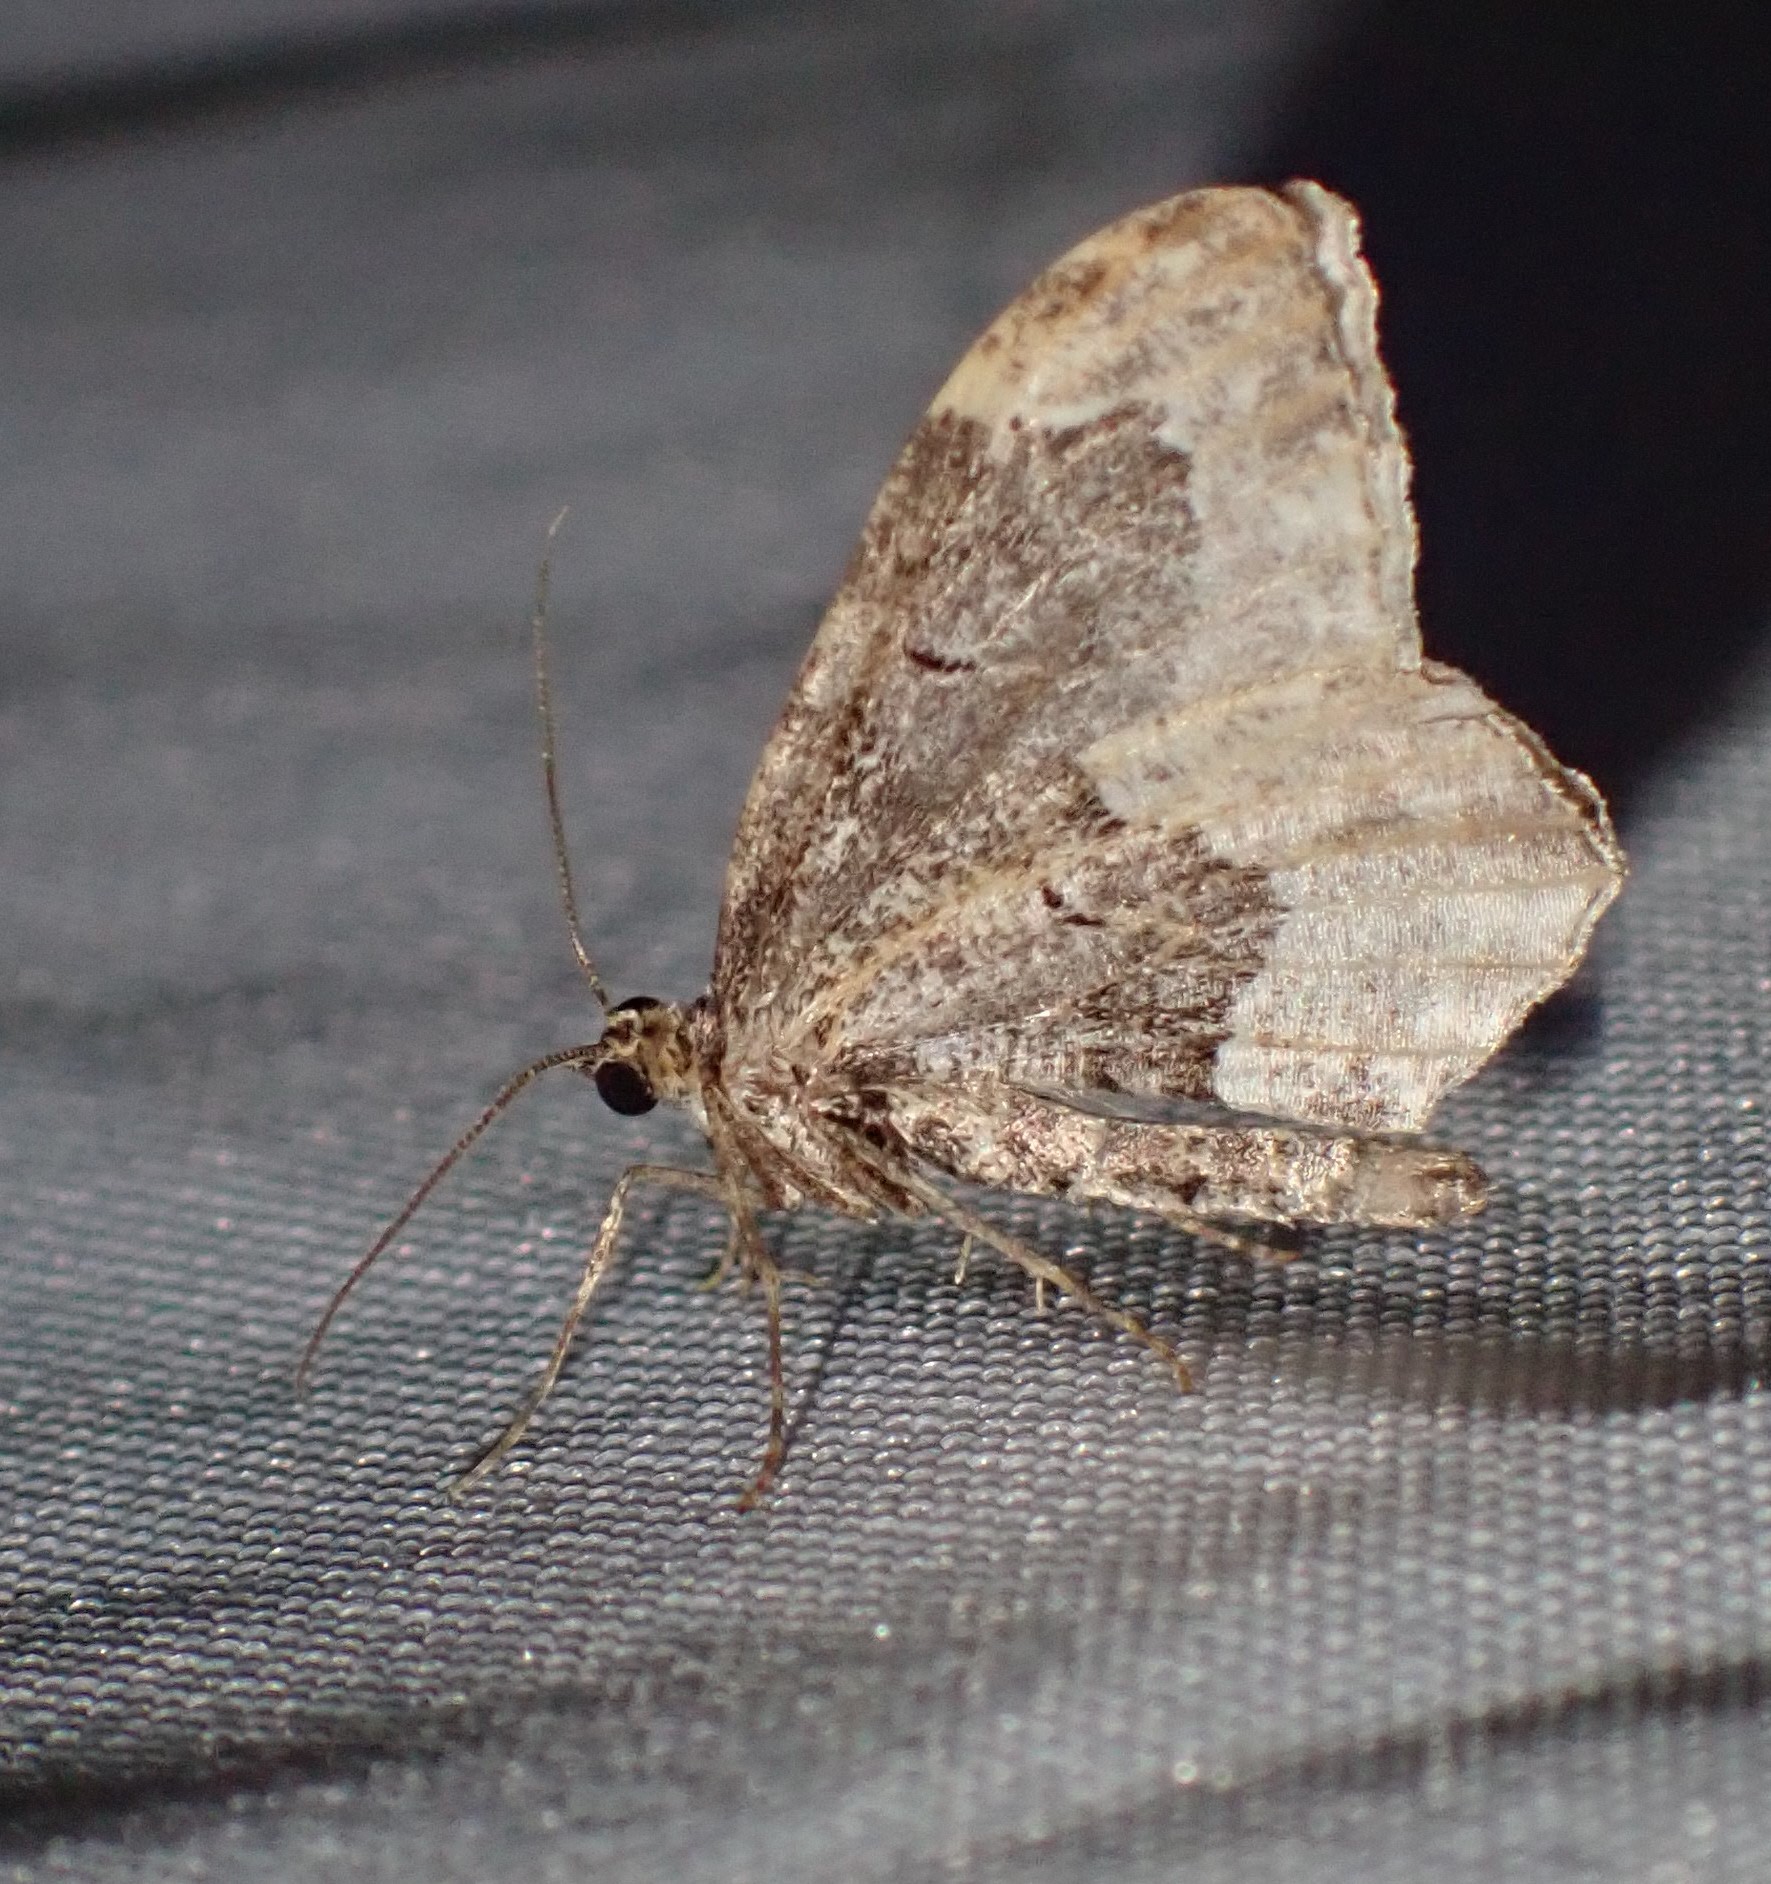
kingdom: Animalia
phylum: Arthropoda
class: Insecta
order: Lepidoptera
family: Geometridae
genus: Ceratodalia
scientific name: Ceratodalia gueneata
